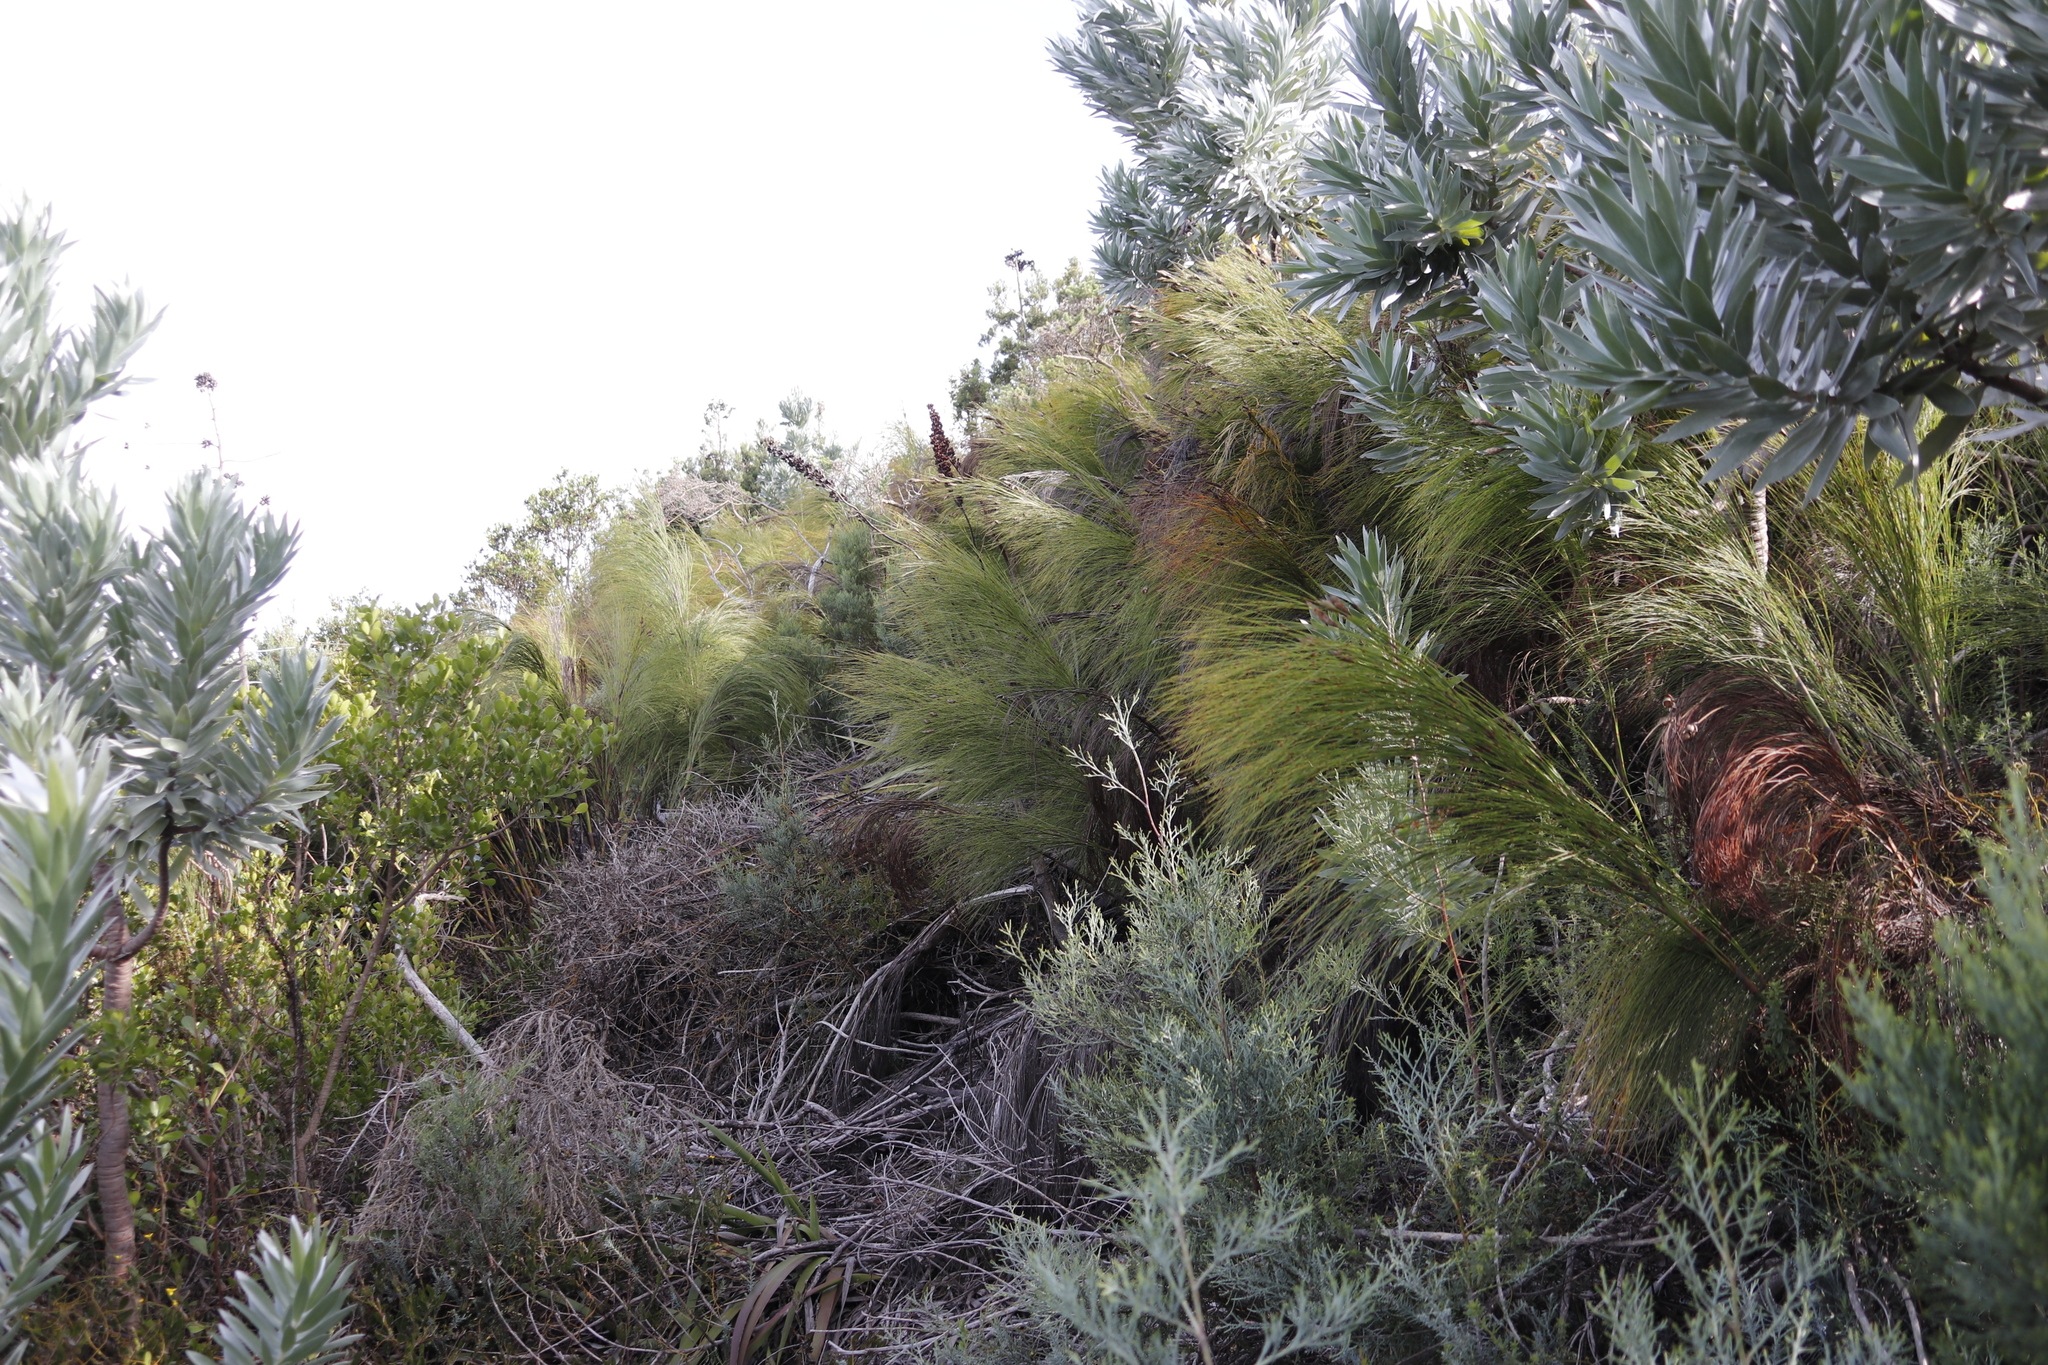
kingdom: Plantae
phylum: Tracheophyta
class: Liliopsida
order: Poales
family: Restionaceae
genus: Cannomois
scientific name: Cannomois virgata
